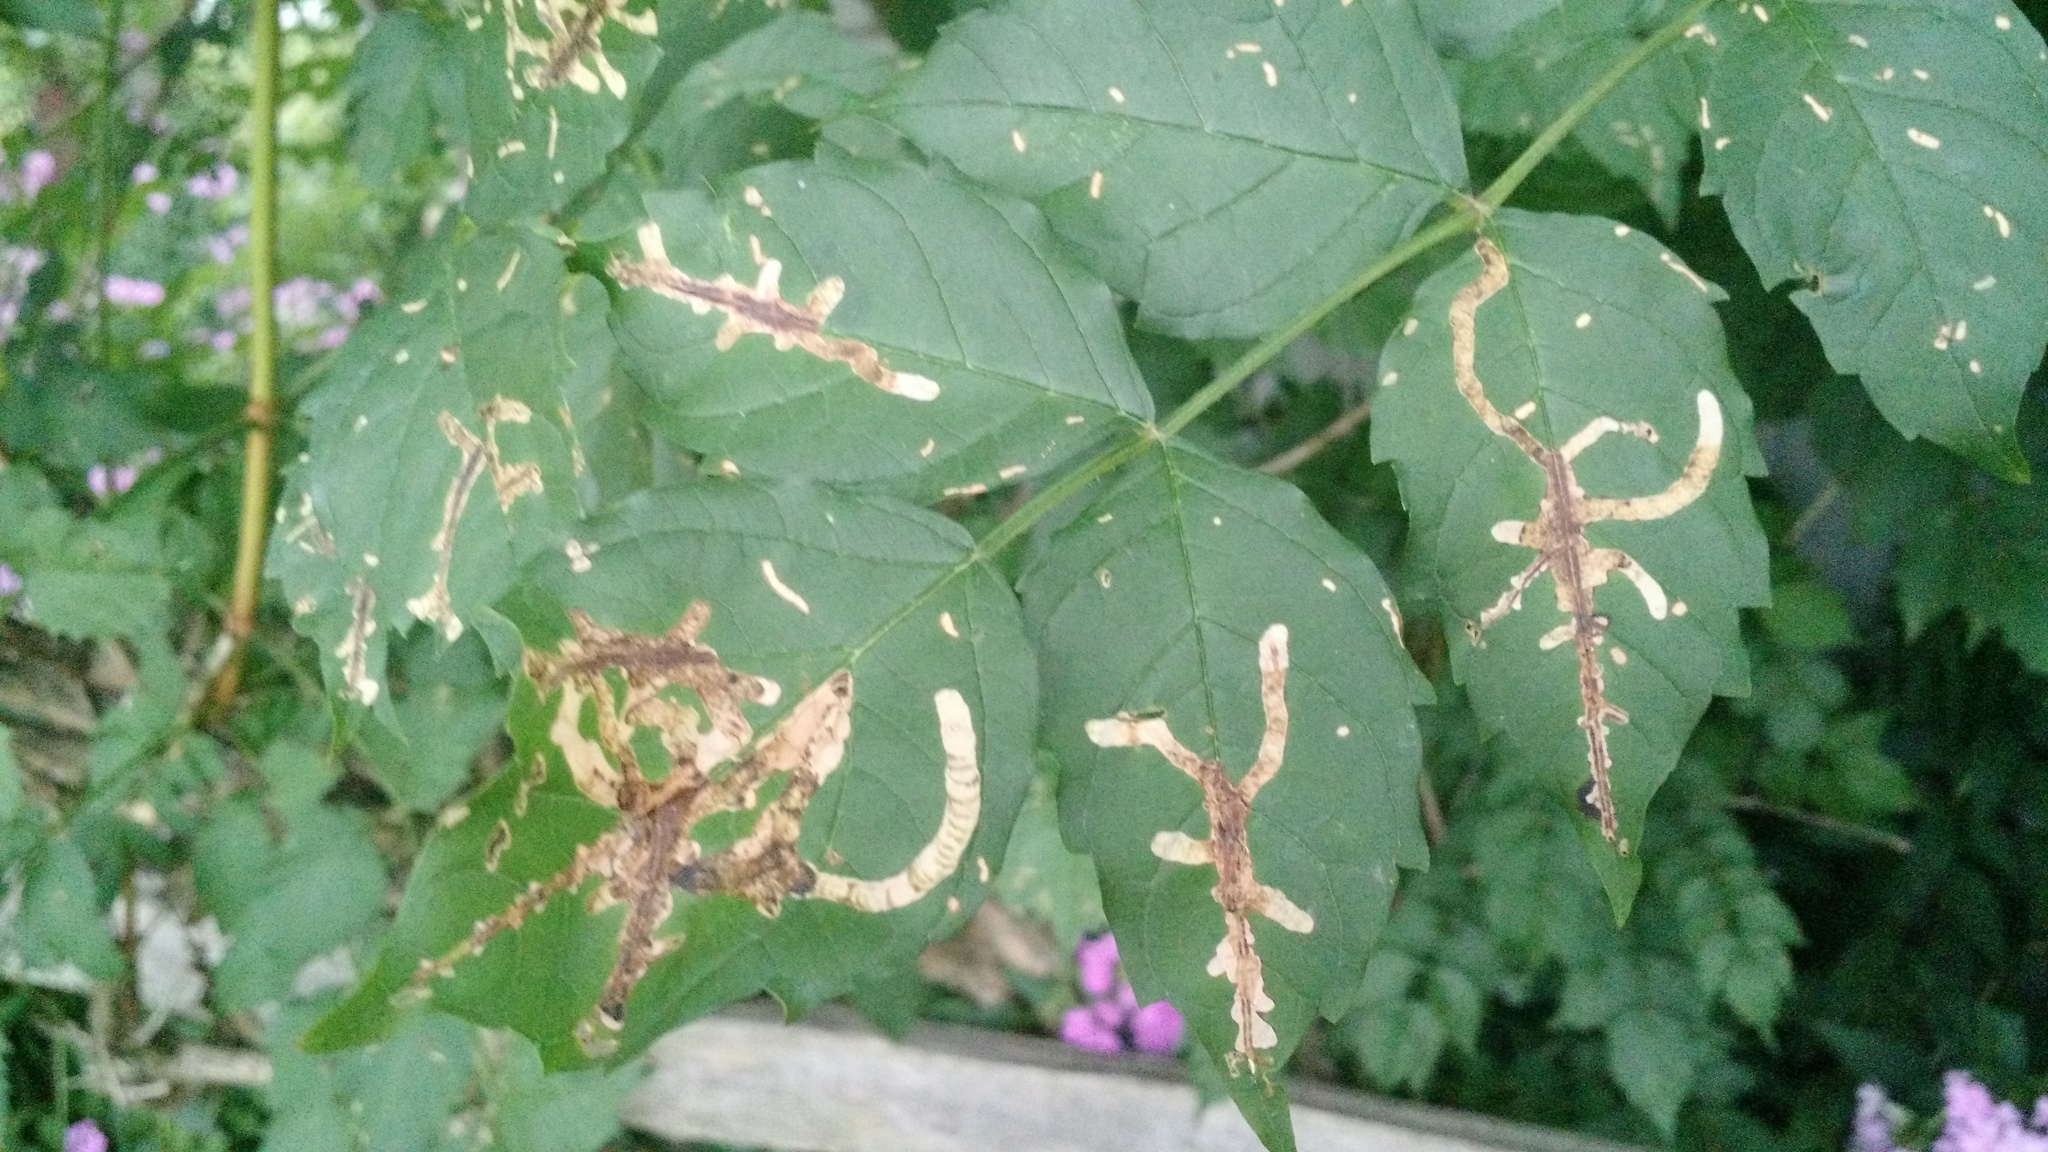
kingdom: Animalia
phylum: Arthropoda
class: Insecta
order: Coleoptera
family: Chrysomelidae
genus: Octotoma
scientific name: Octotoma plicatula
